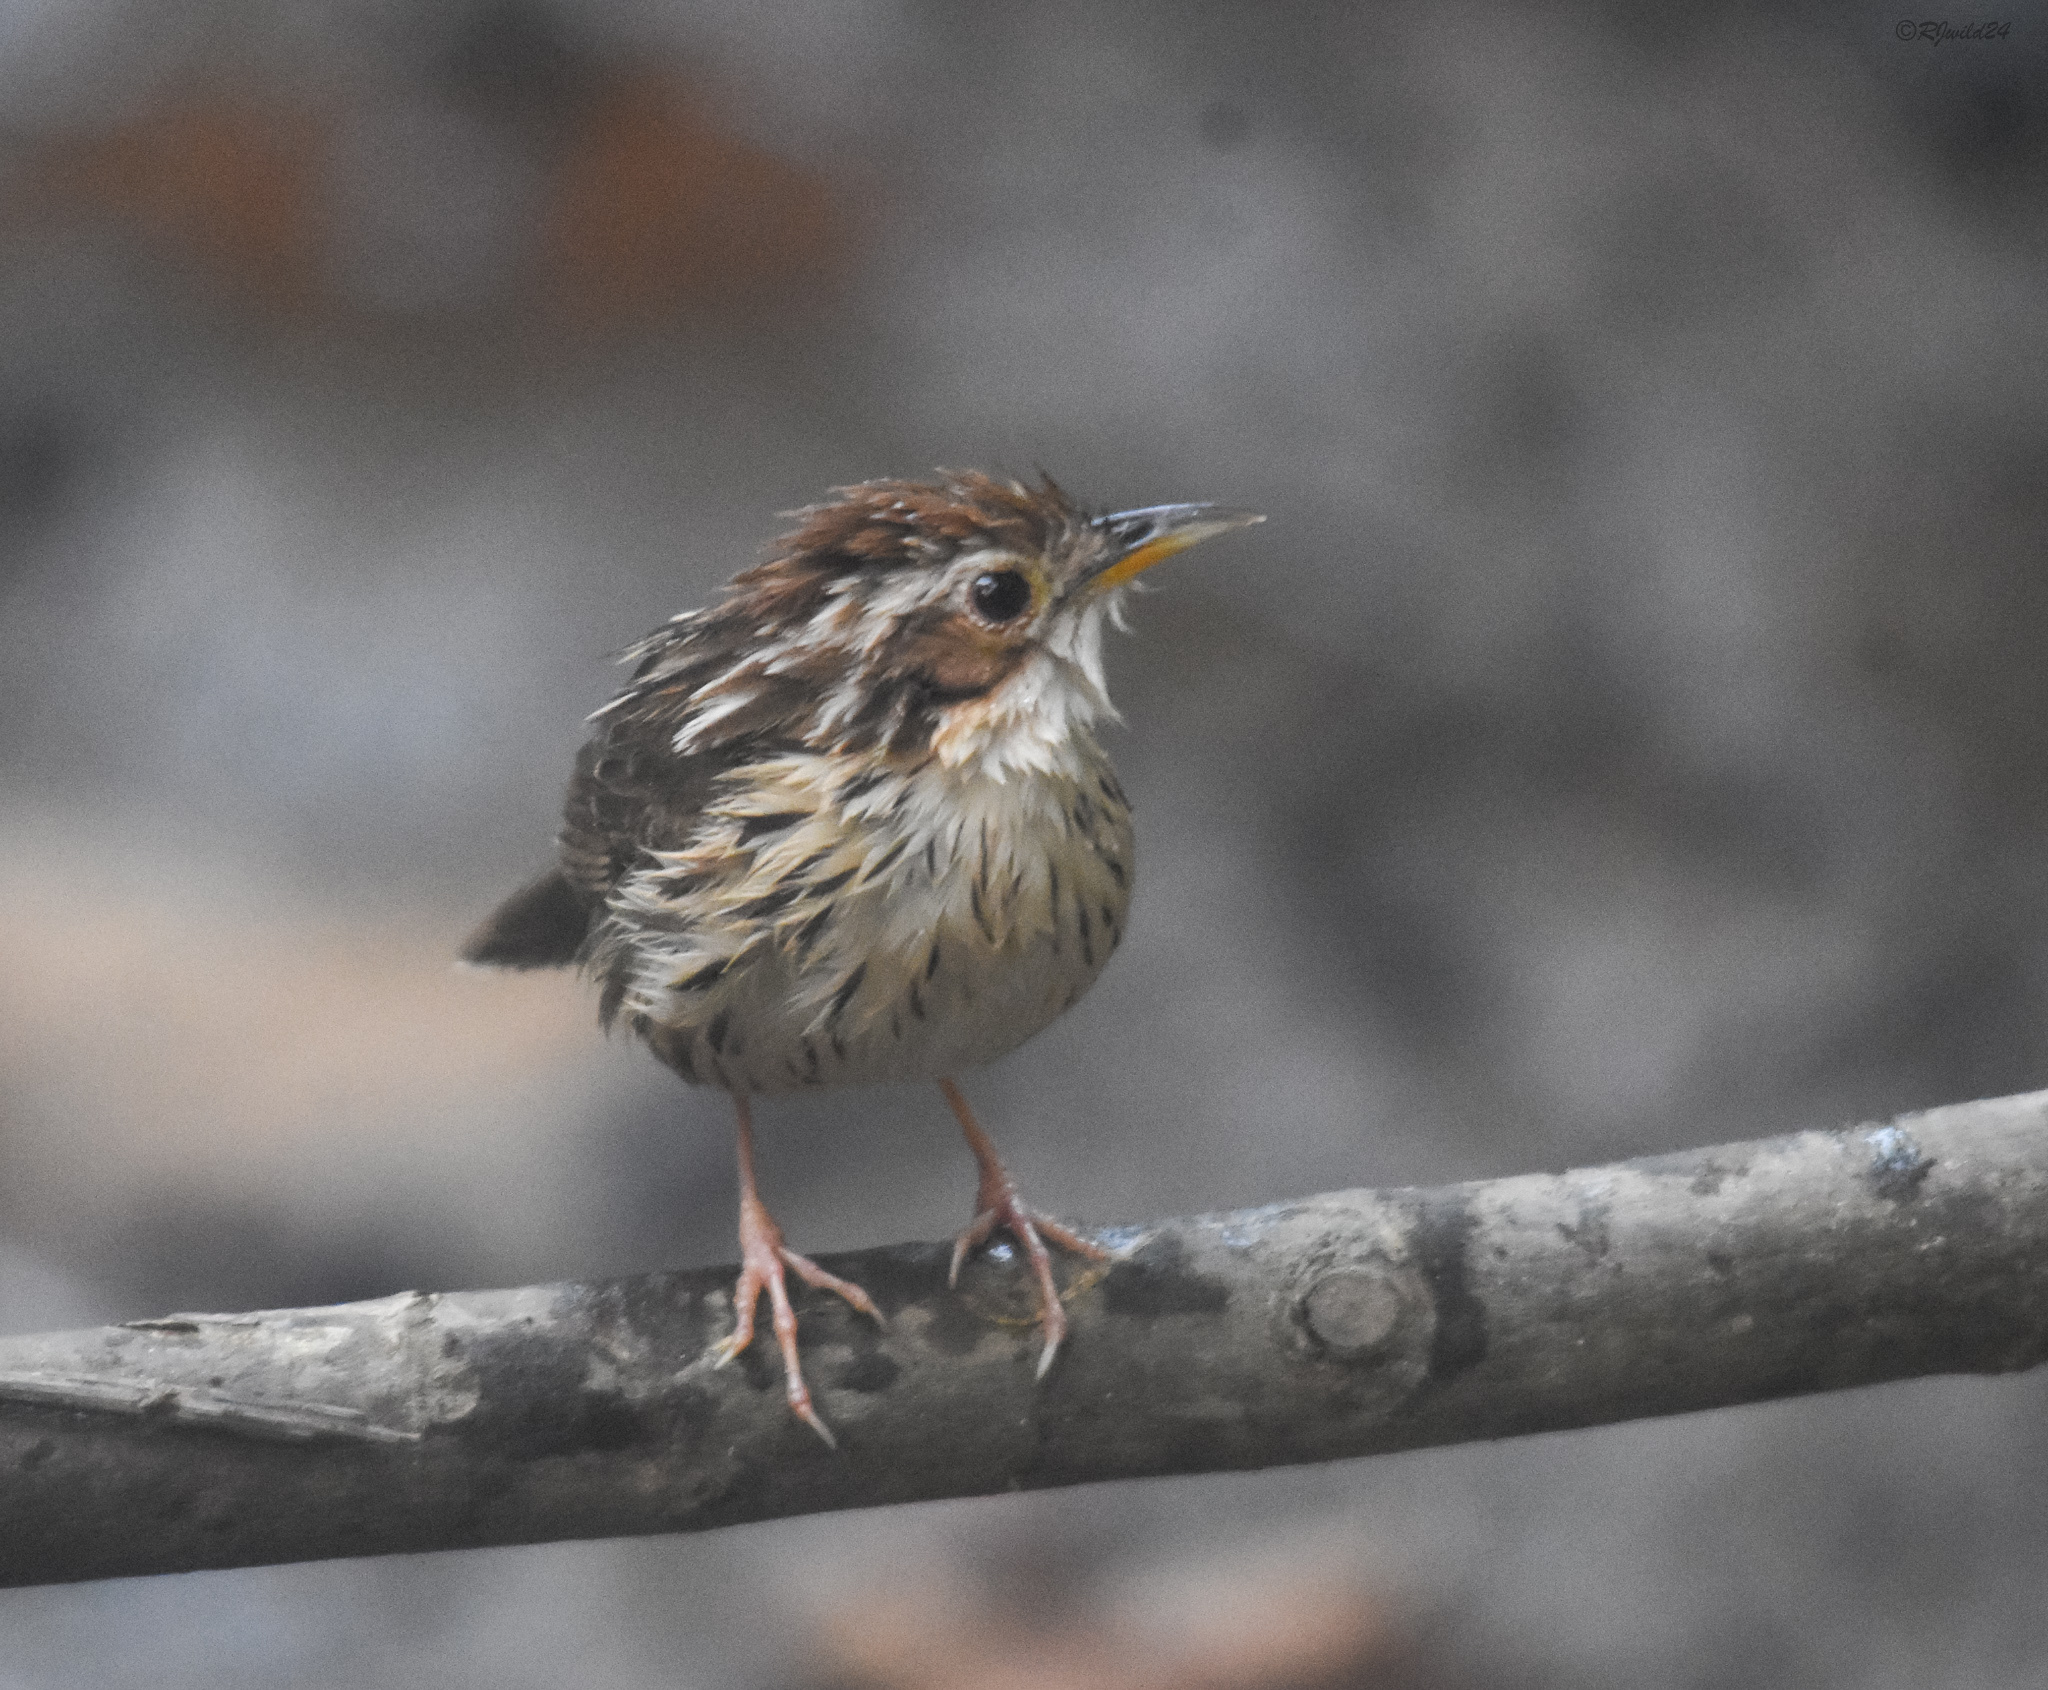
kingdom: Animalia
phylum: Chordata
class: Aves
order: Passeriformes
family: Pellorneidae
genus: Pellorneum
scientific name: Pellorneum ruficeps
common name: Puff-throated babbler
